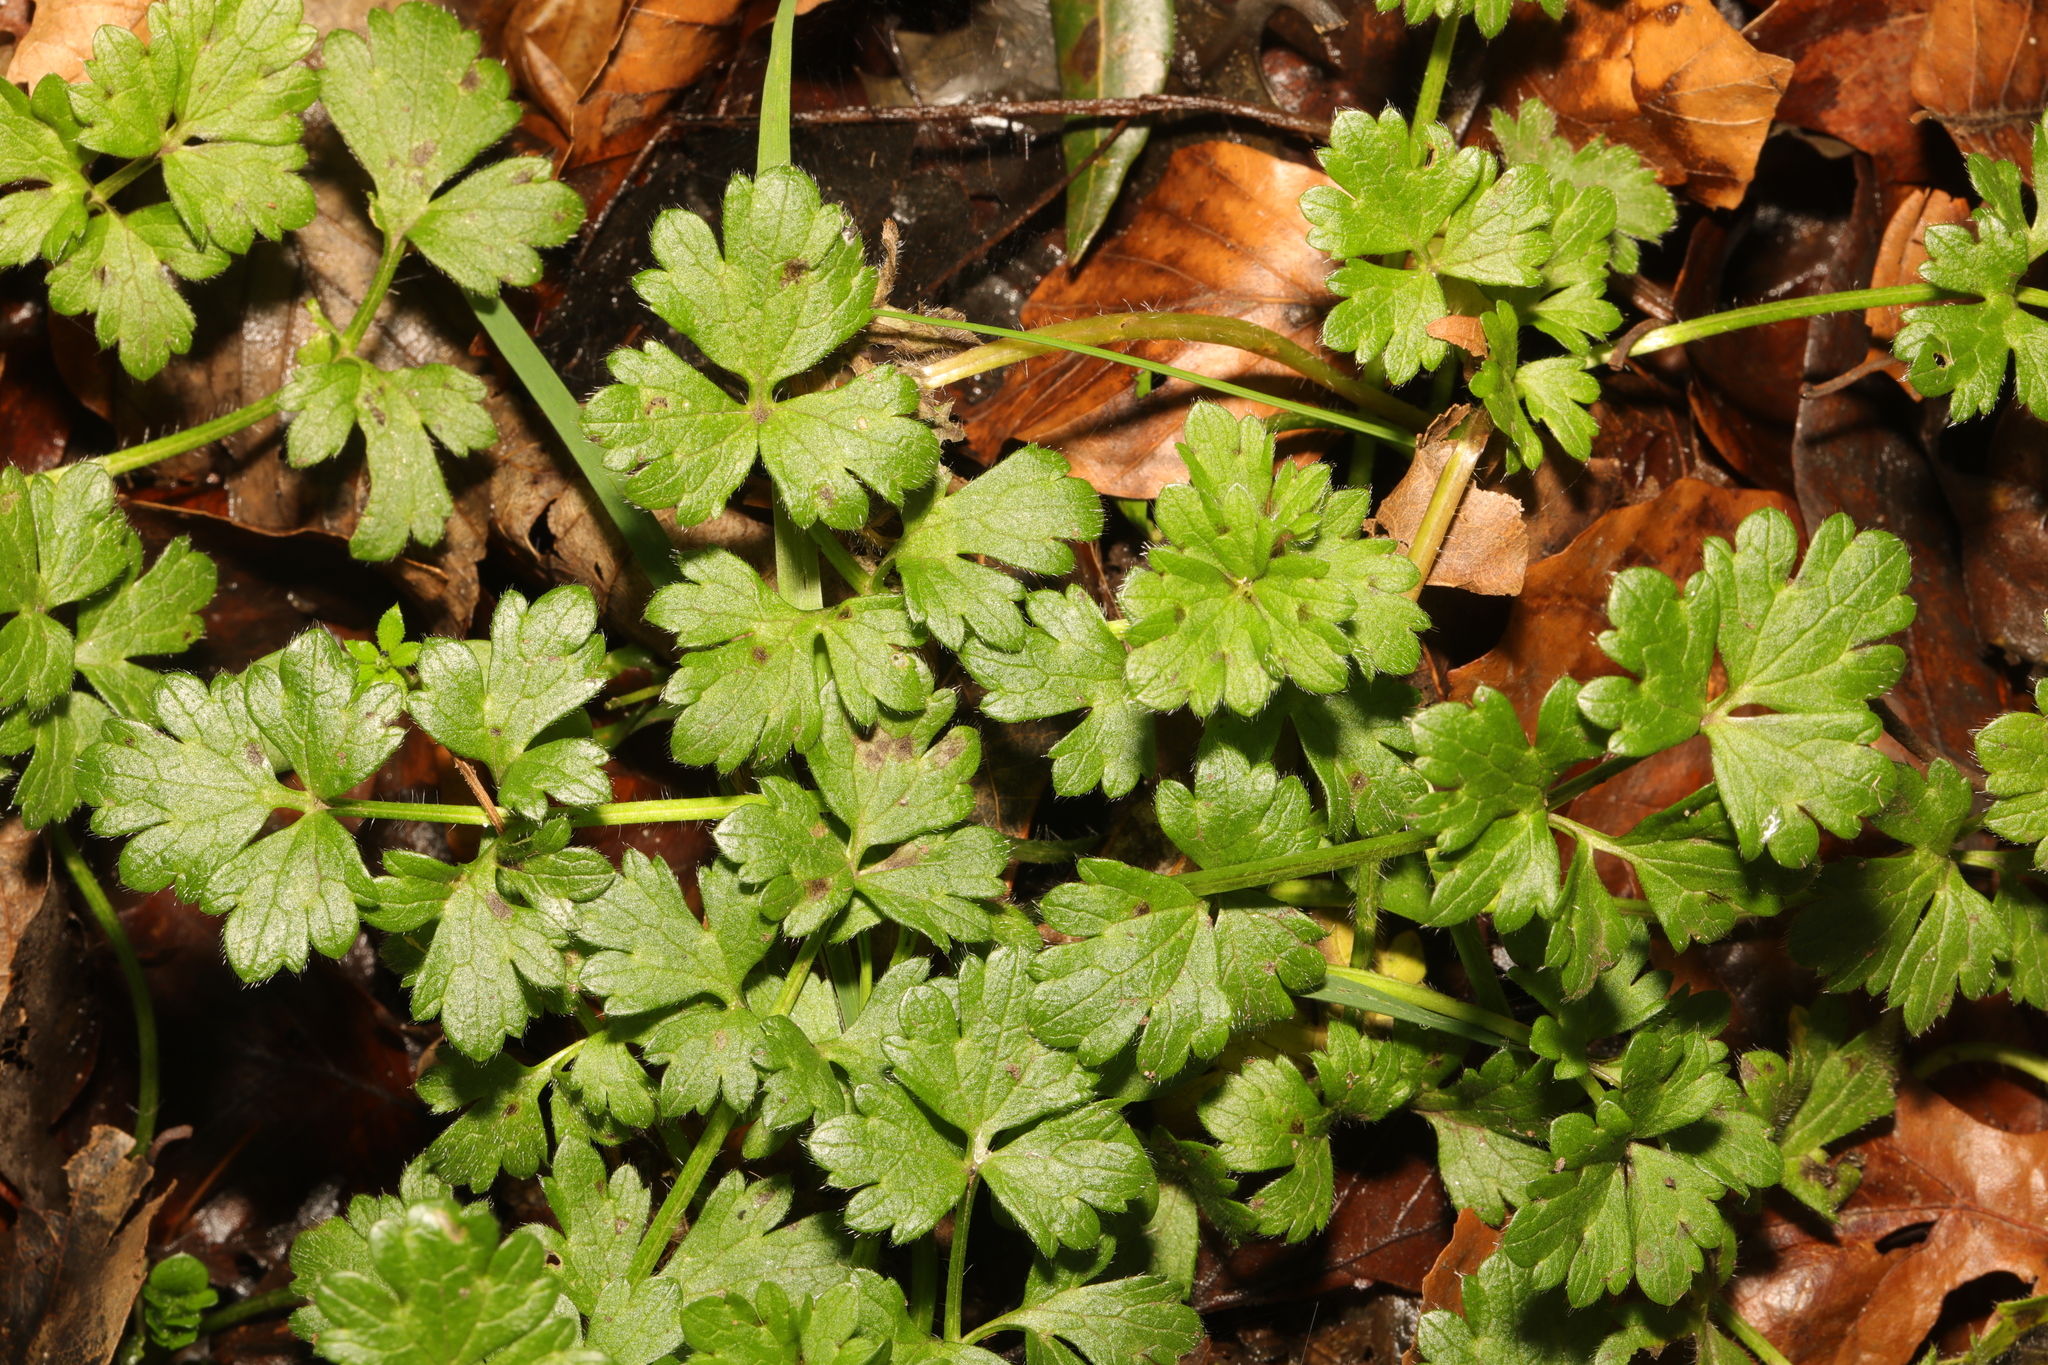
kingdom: Plantae
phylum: Tracheophyta
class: Magnoliopsida
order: Ranunculales
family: Ranunculaceae
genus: Ranunculus
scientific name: Ranunculus repens
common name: Creeping buttercup
